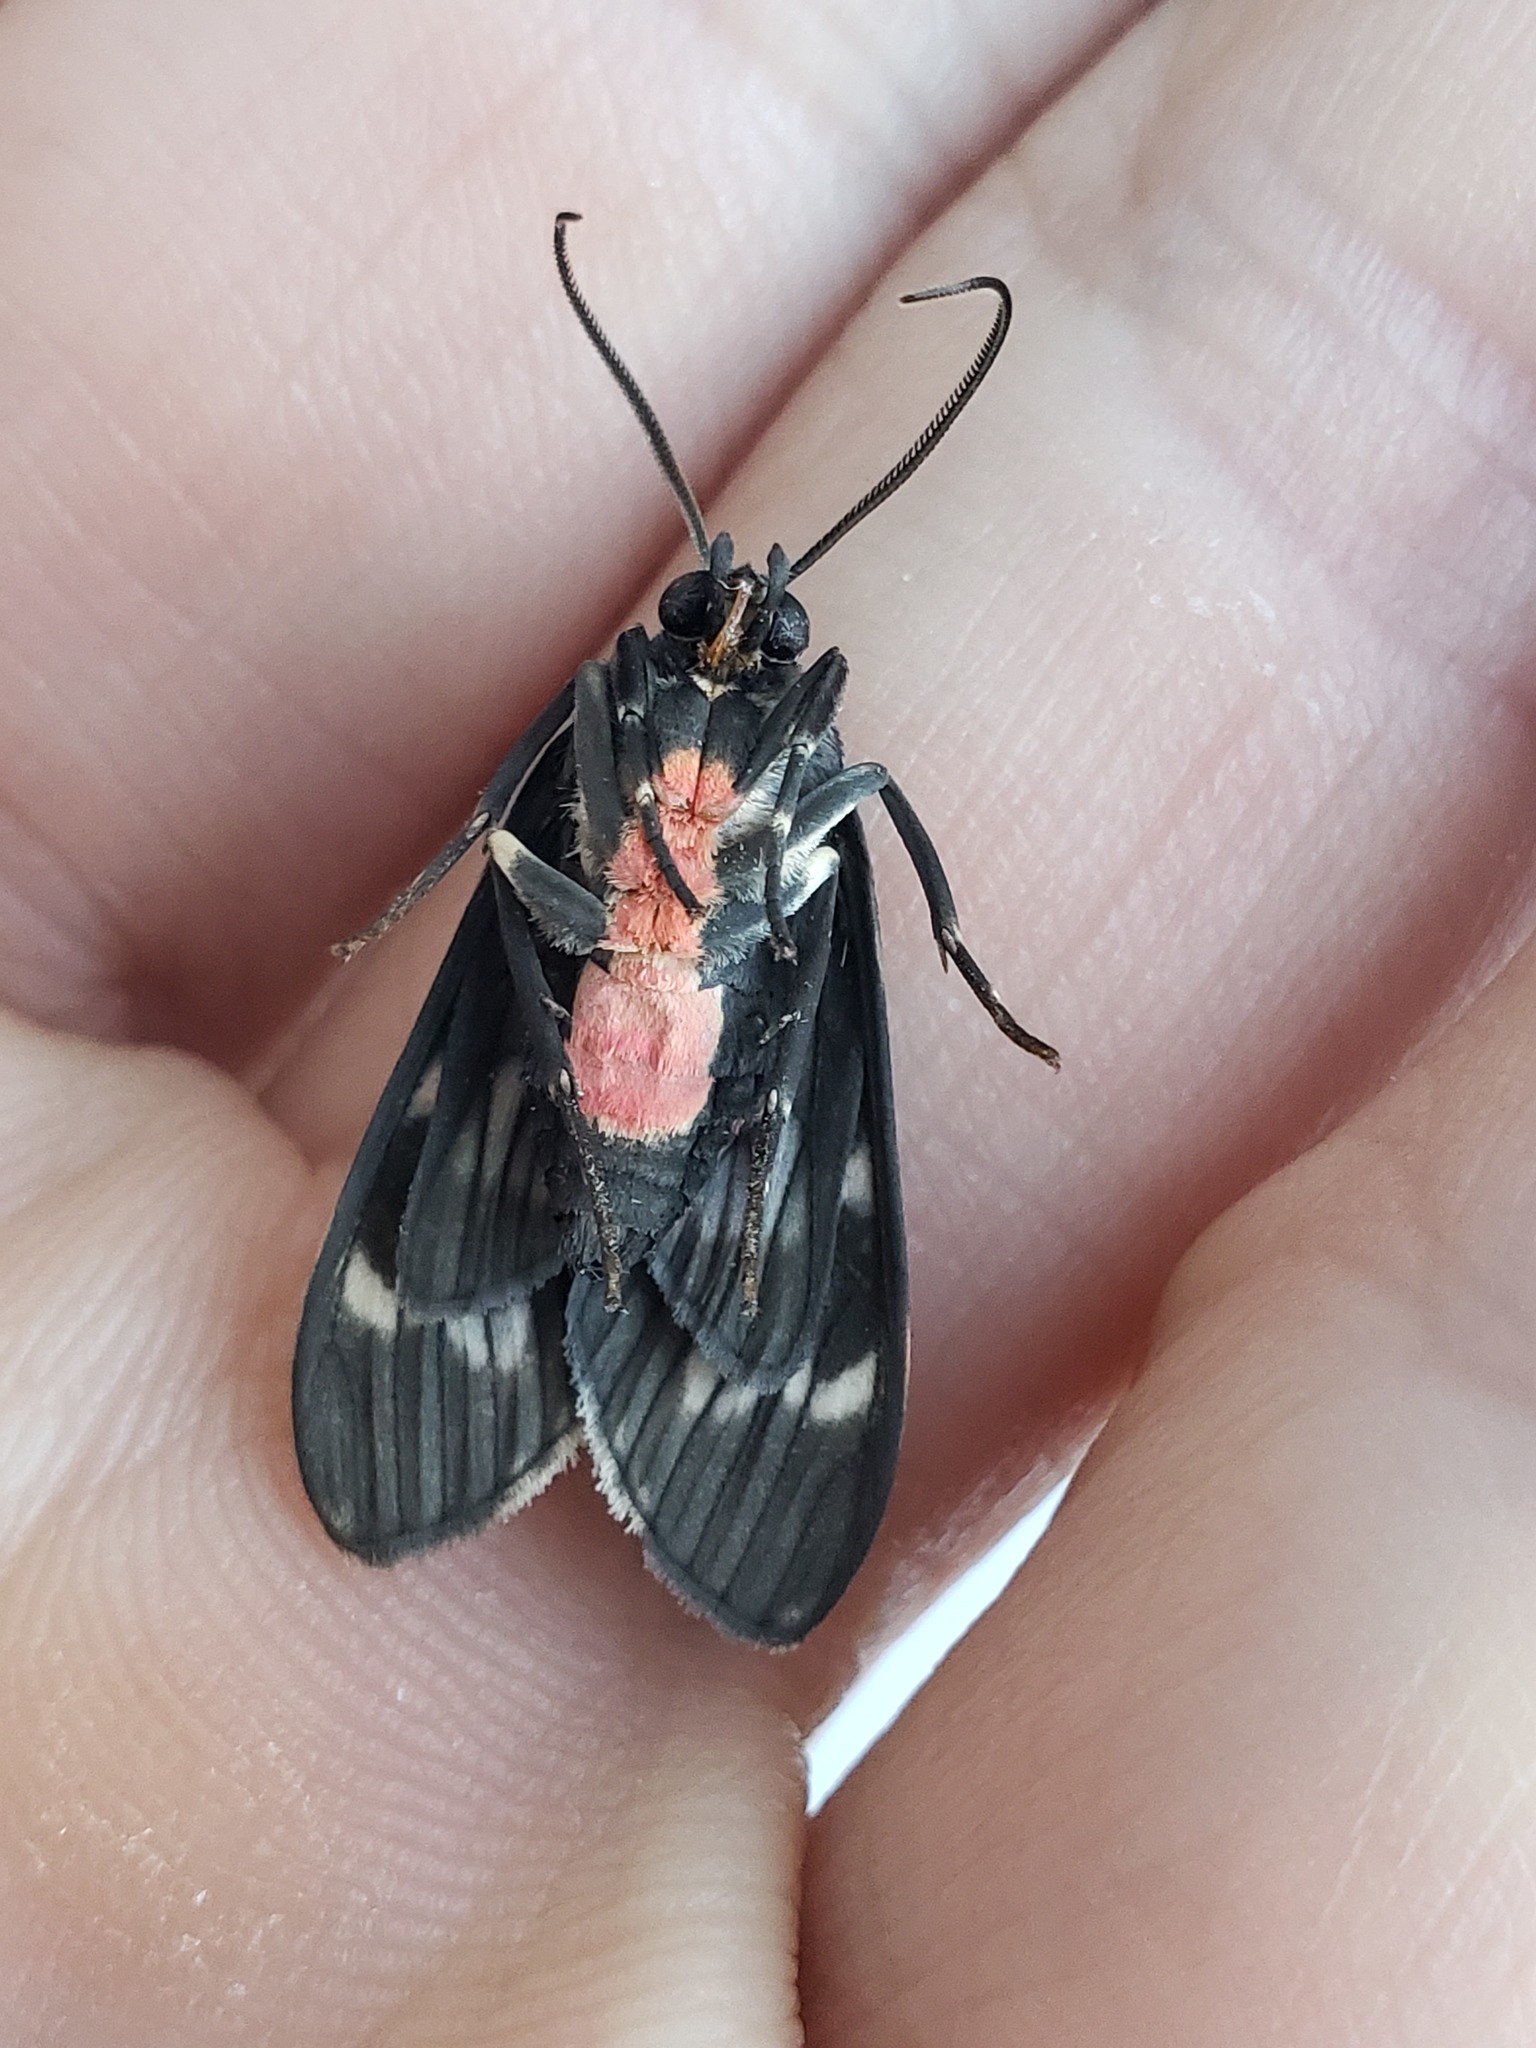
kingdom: Animalia
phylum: Arthropoda
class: Insecta
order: Lepidoptera
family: Erebidae
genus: Eucereon
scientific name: Eucereon chalcodon
